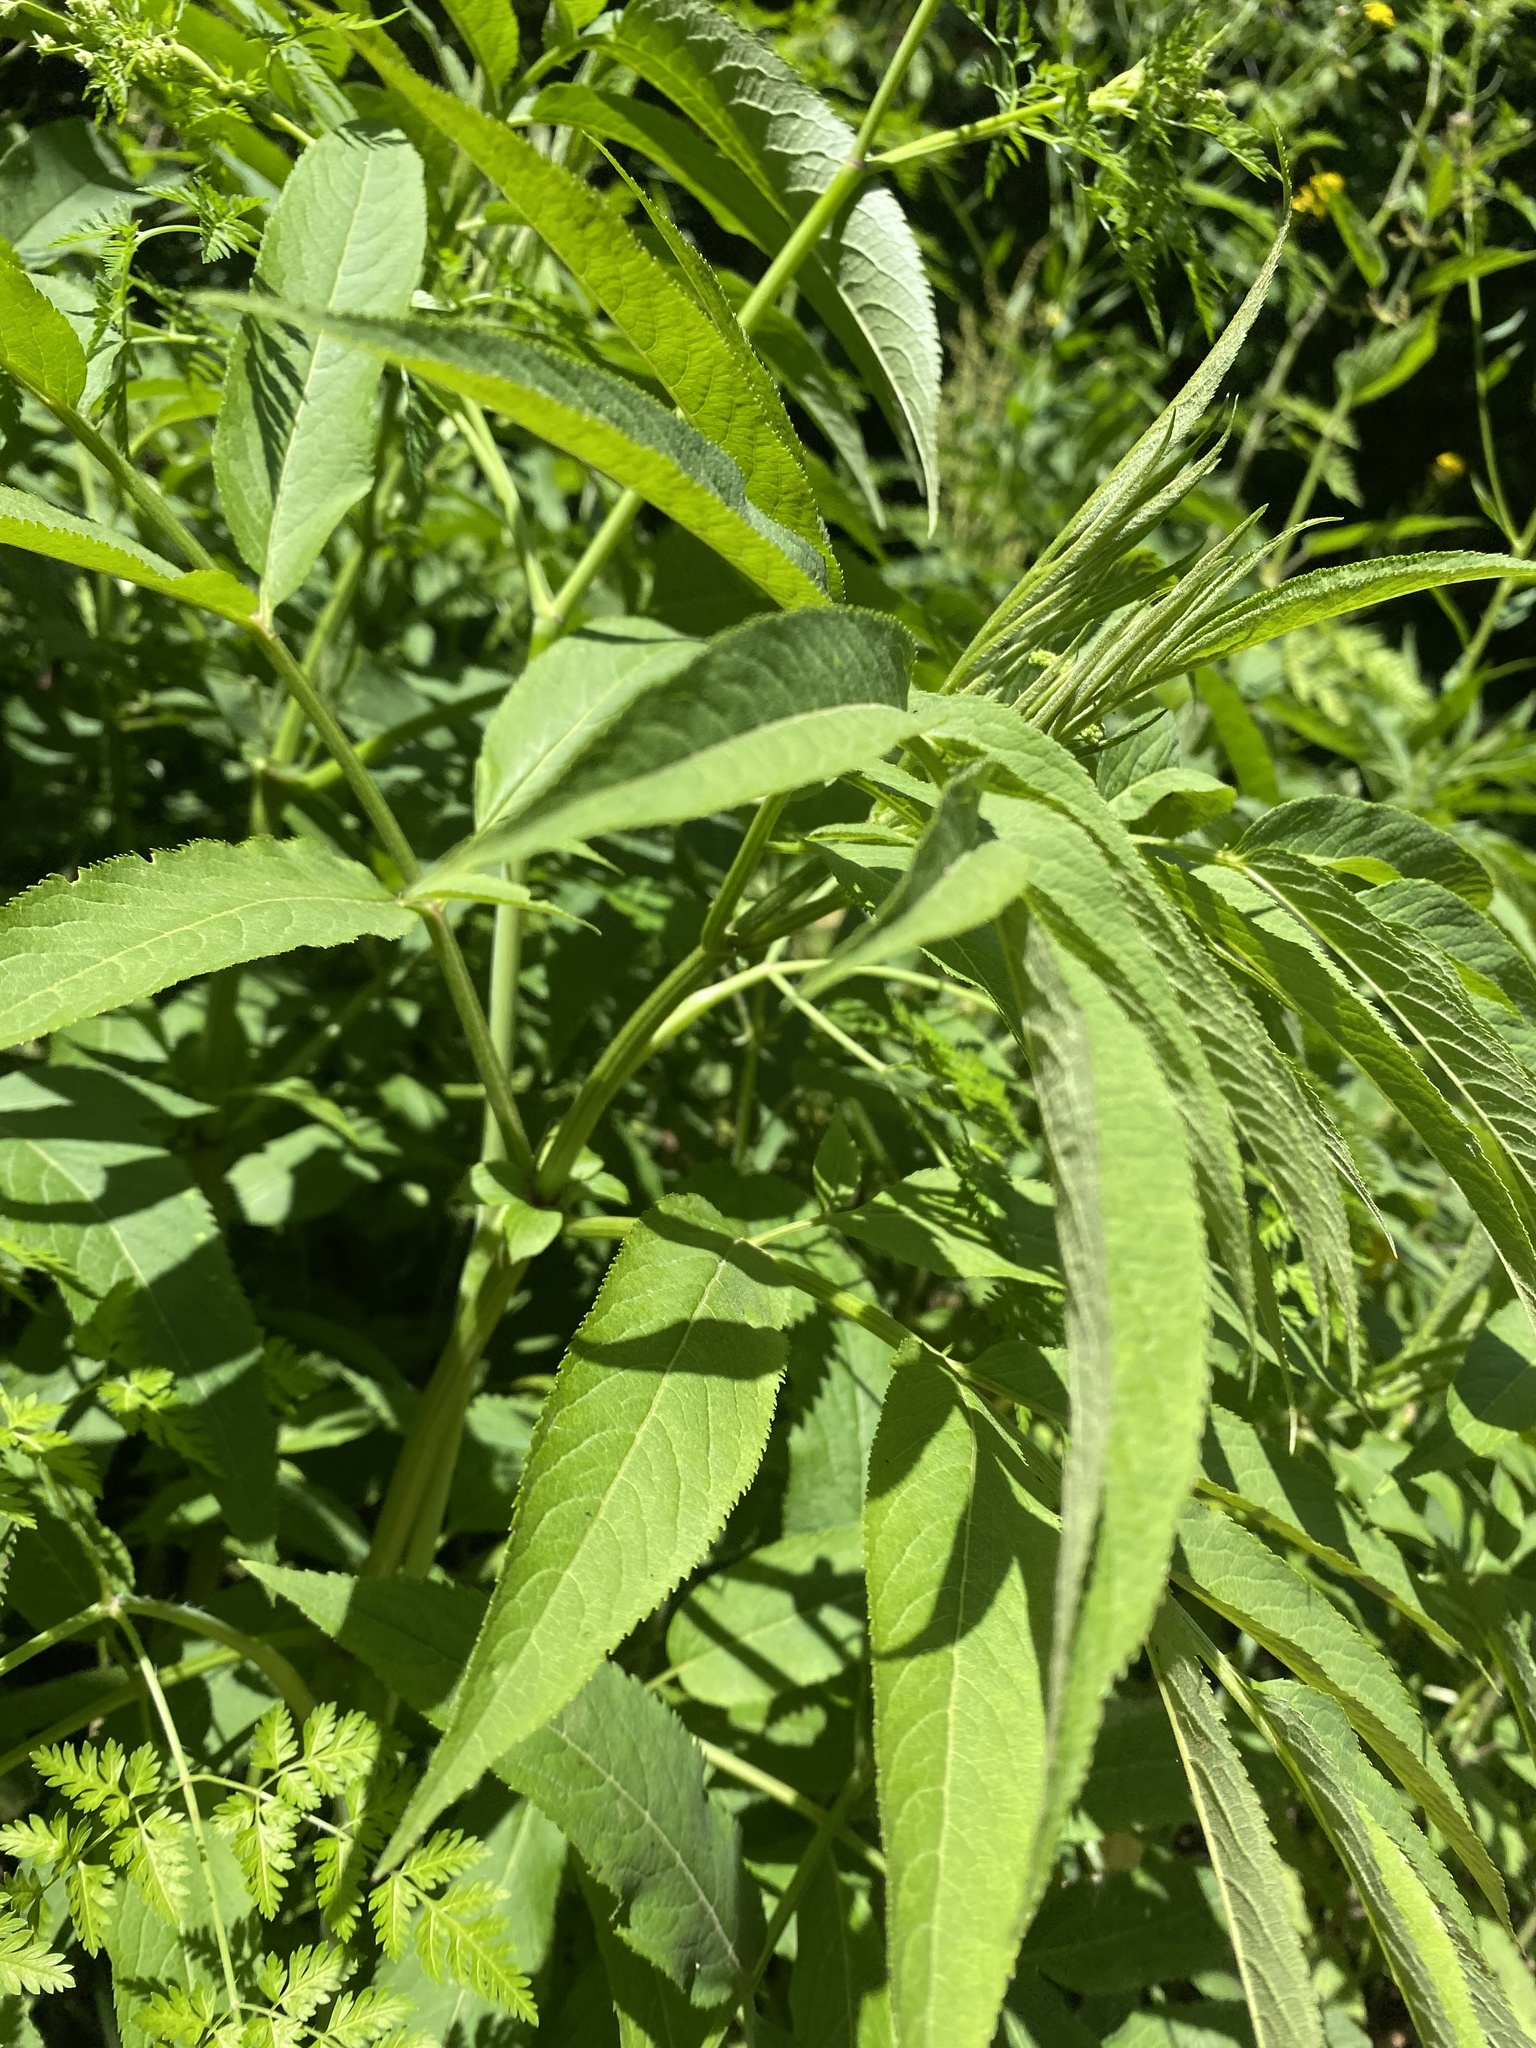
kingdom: Plantae
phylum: Tracheophyta
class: Magnoliopsida
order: Dipsacales
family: Viburnaceae
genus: Sambucus
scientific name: Sambucus ebulus
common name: Dwarf elder
